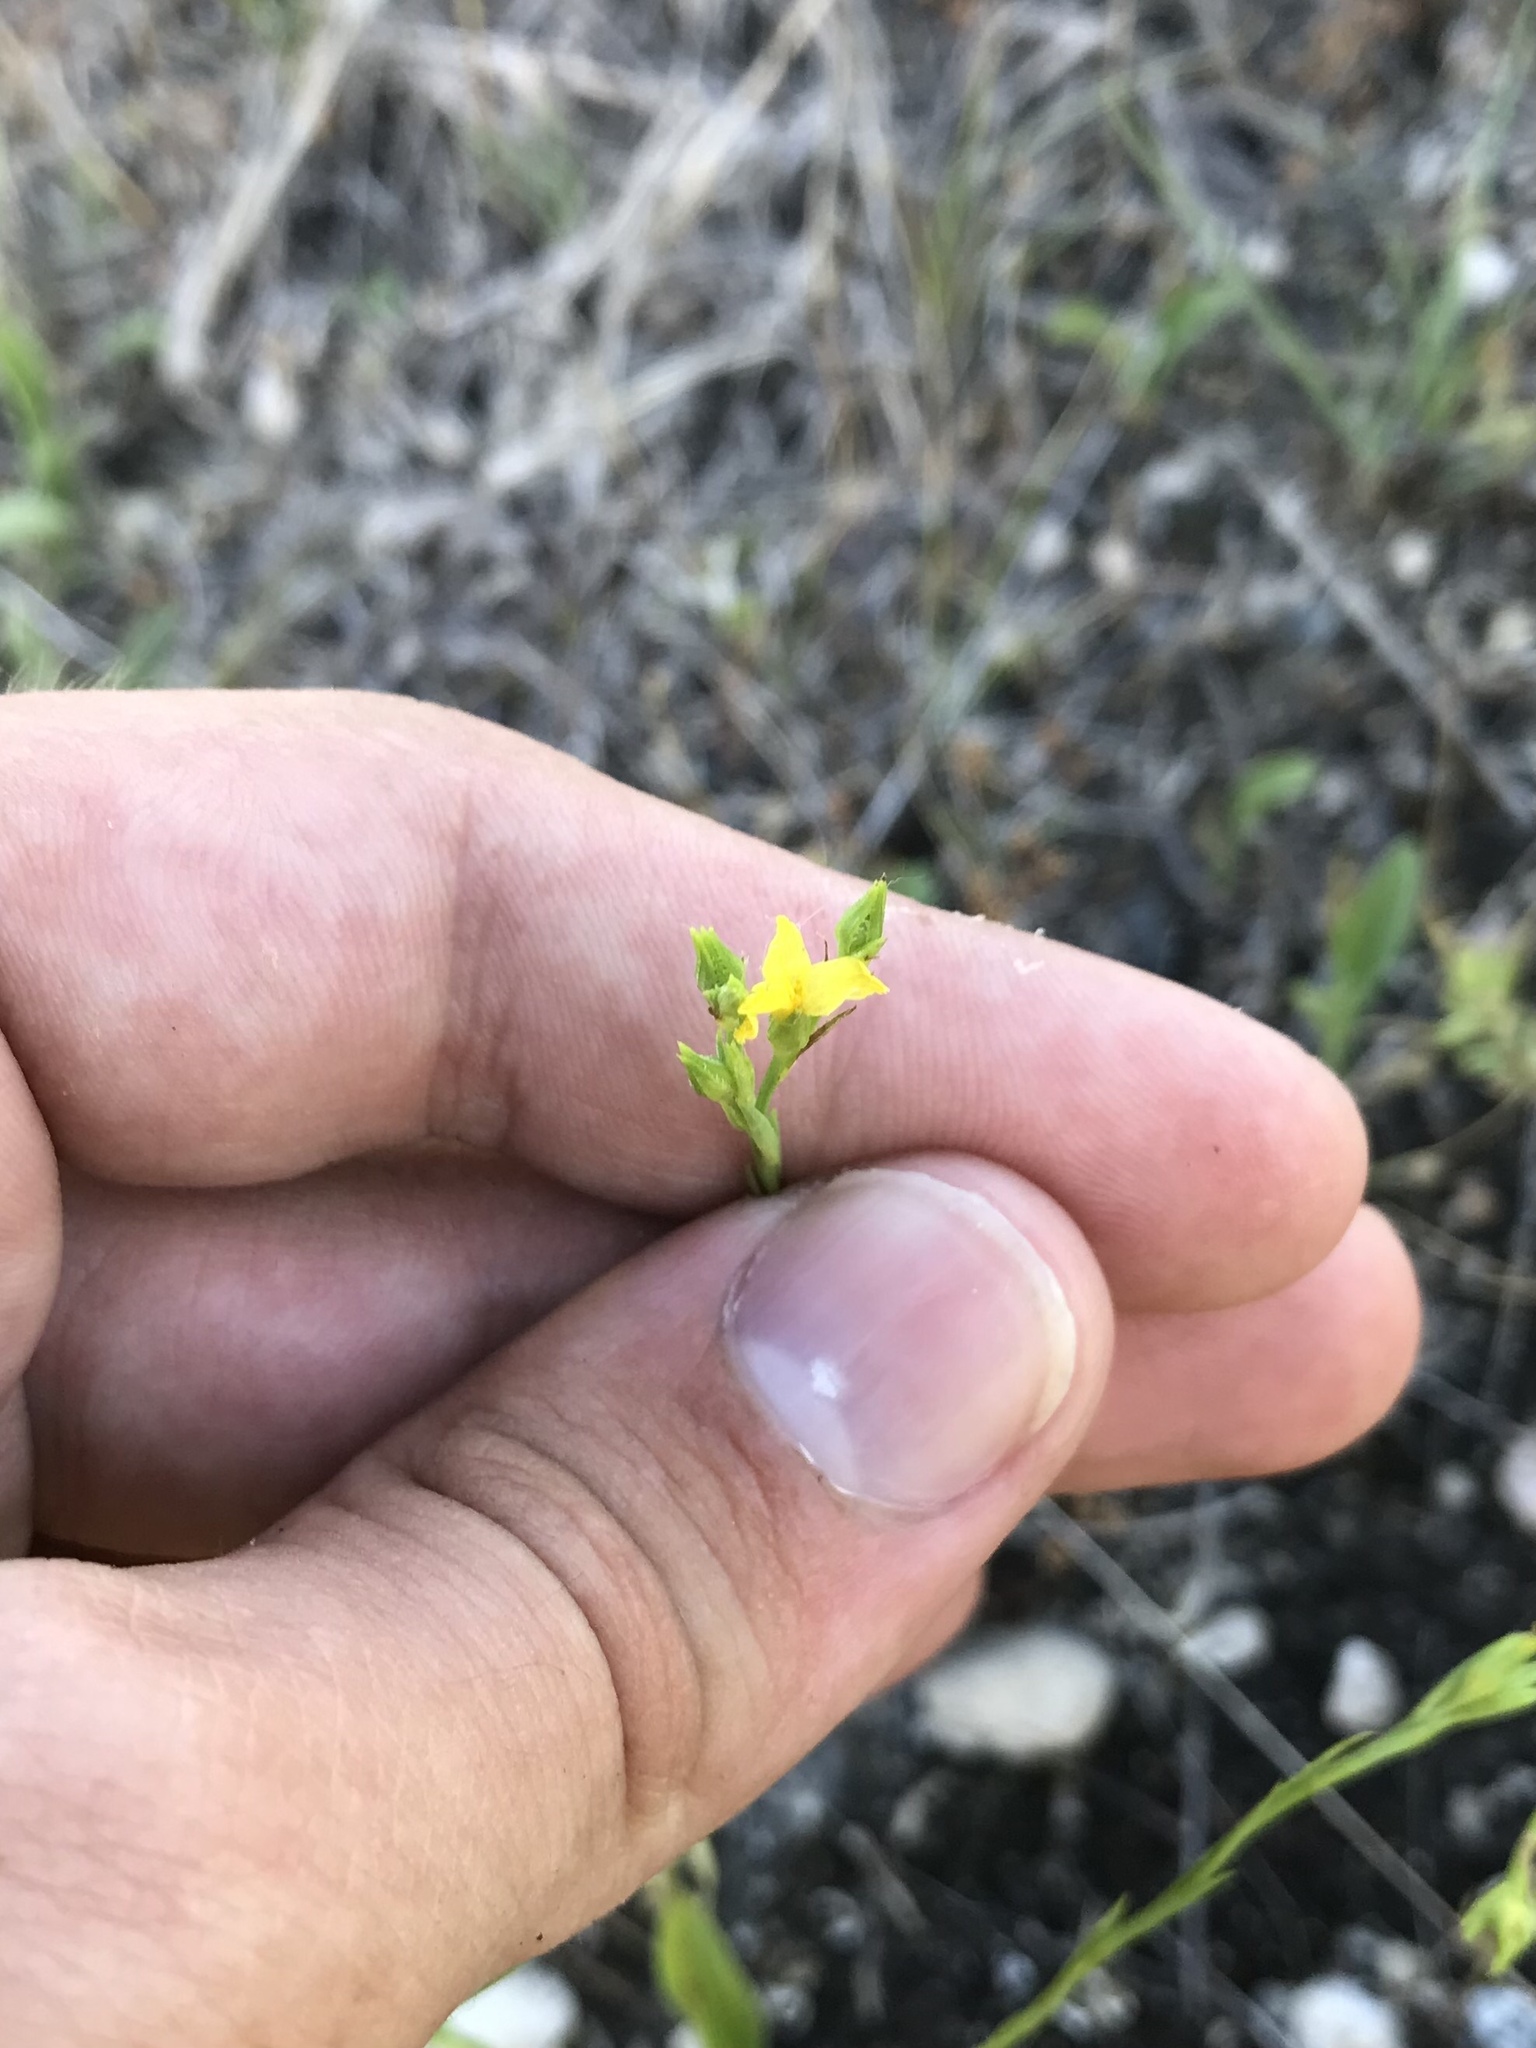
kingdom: Plantae
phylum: Tracheophyta
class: Magnoliopsida
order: Malpighiales
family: Linaceae
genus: Linum
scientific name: Linum sulcatum
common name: Grooved flax
